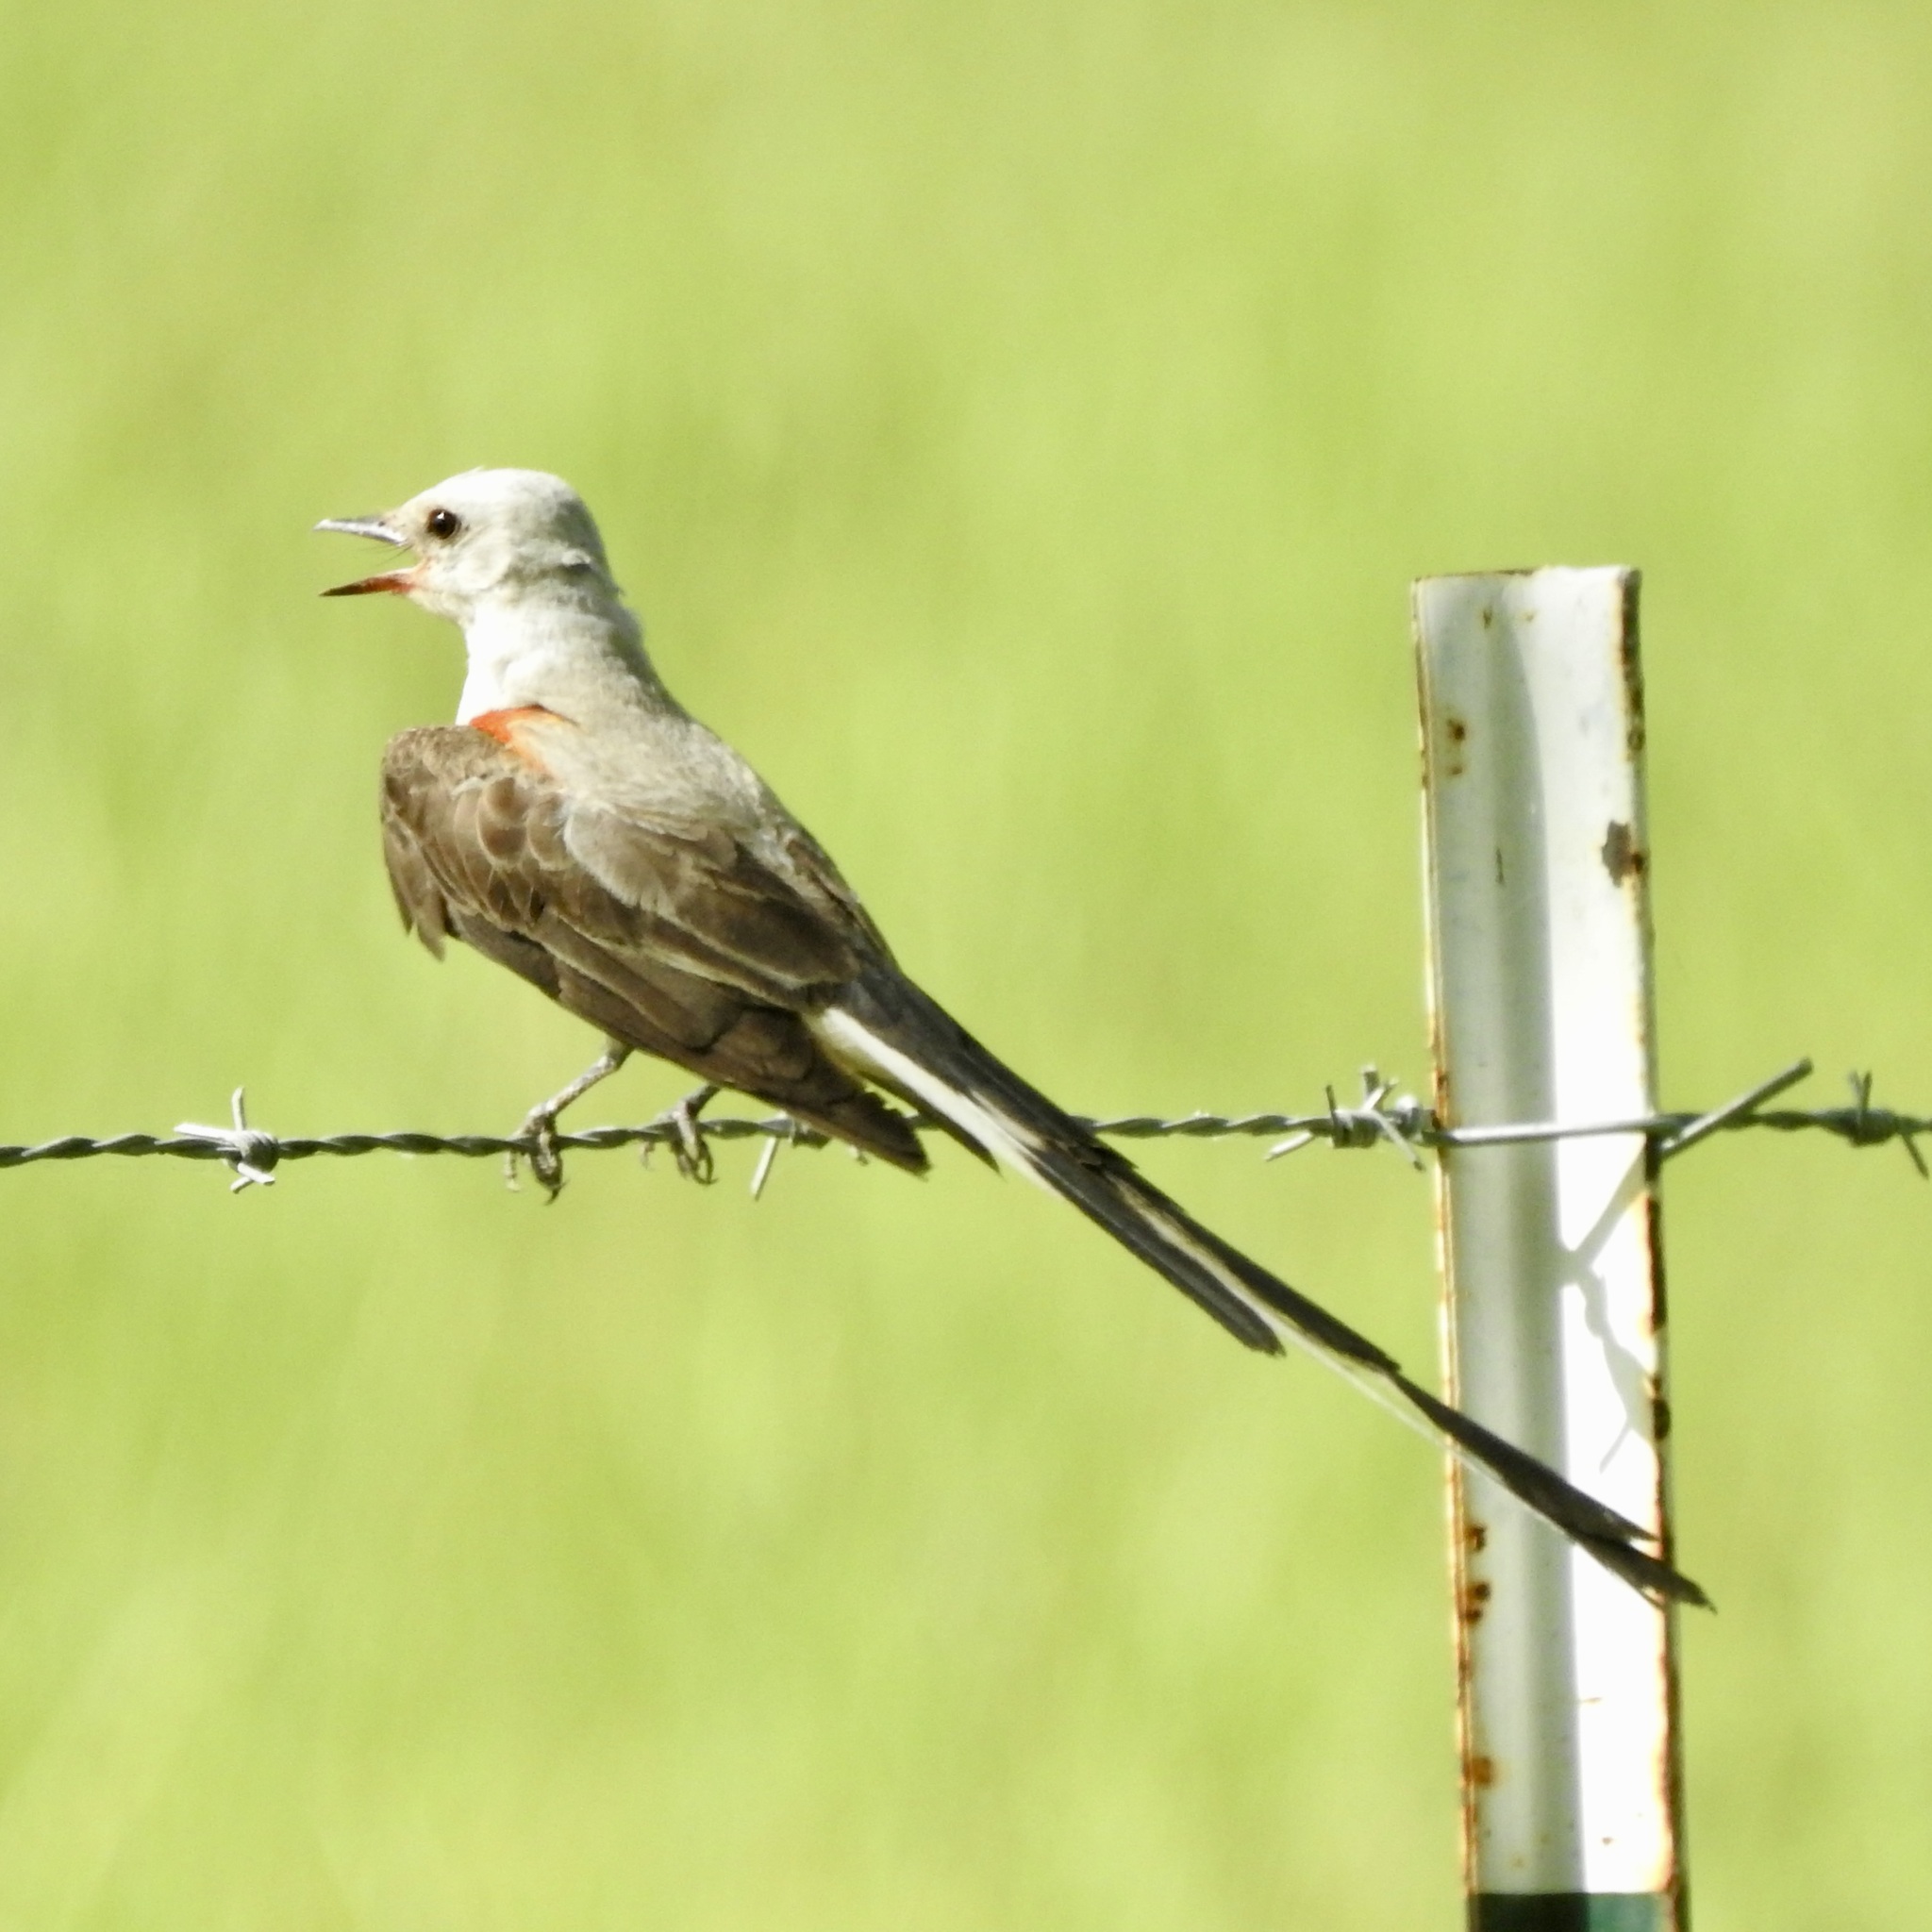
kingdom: Animalia
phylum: Chordata
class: Aves
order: Passeriformes
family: Tyrannidae
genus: Tyrannus
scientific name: Tyrannus forficatus
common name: Scissor-tailed flycatcher
